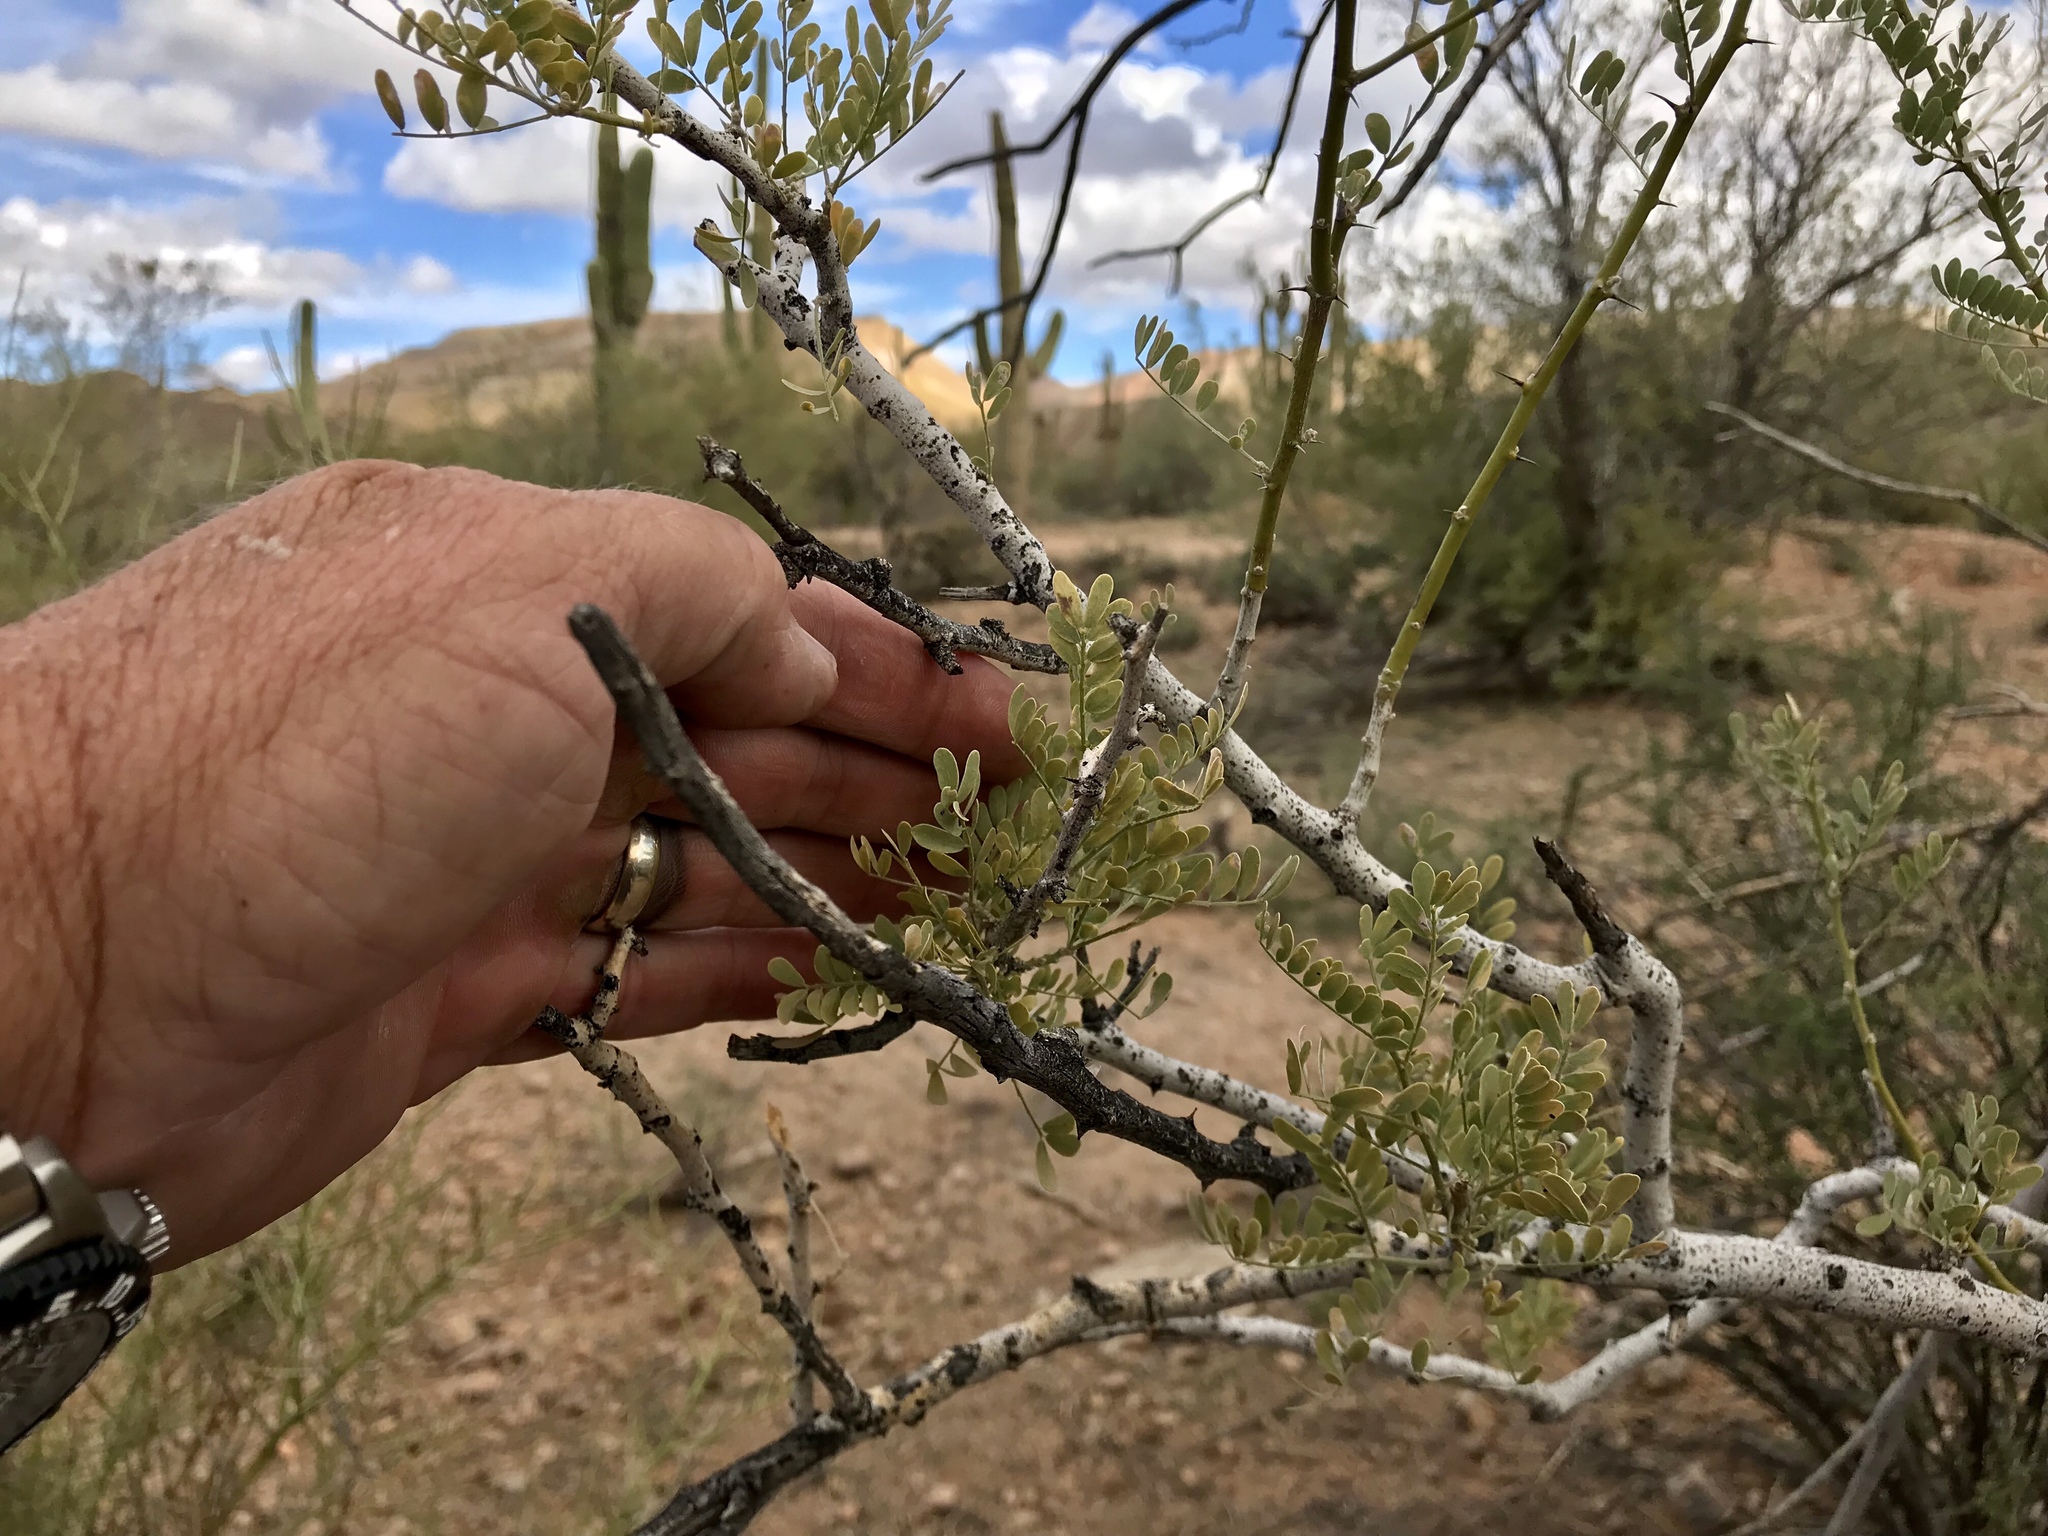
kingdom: Plantae
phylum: Tracheophyta
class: Magnoliopsida
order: Fabales
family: Fabaceae
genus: Olneya
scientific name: Olneya tesota
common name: Desert ironwood
